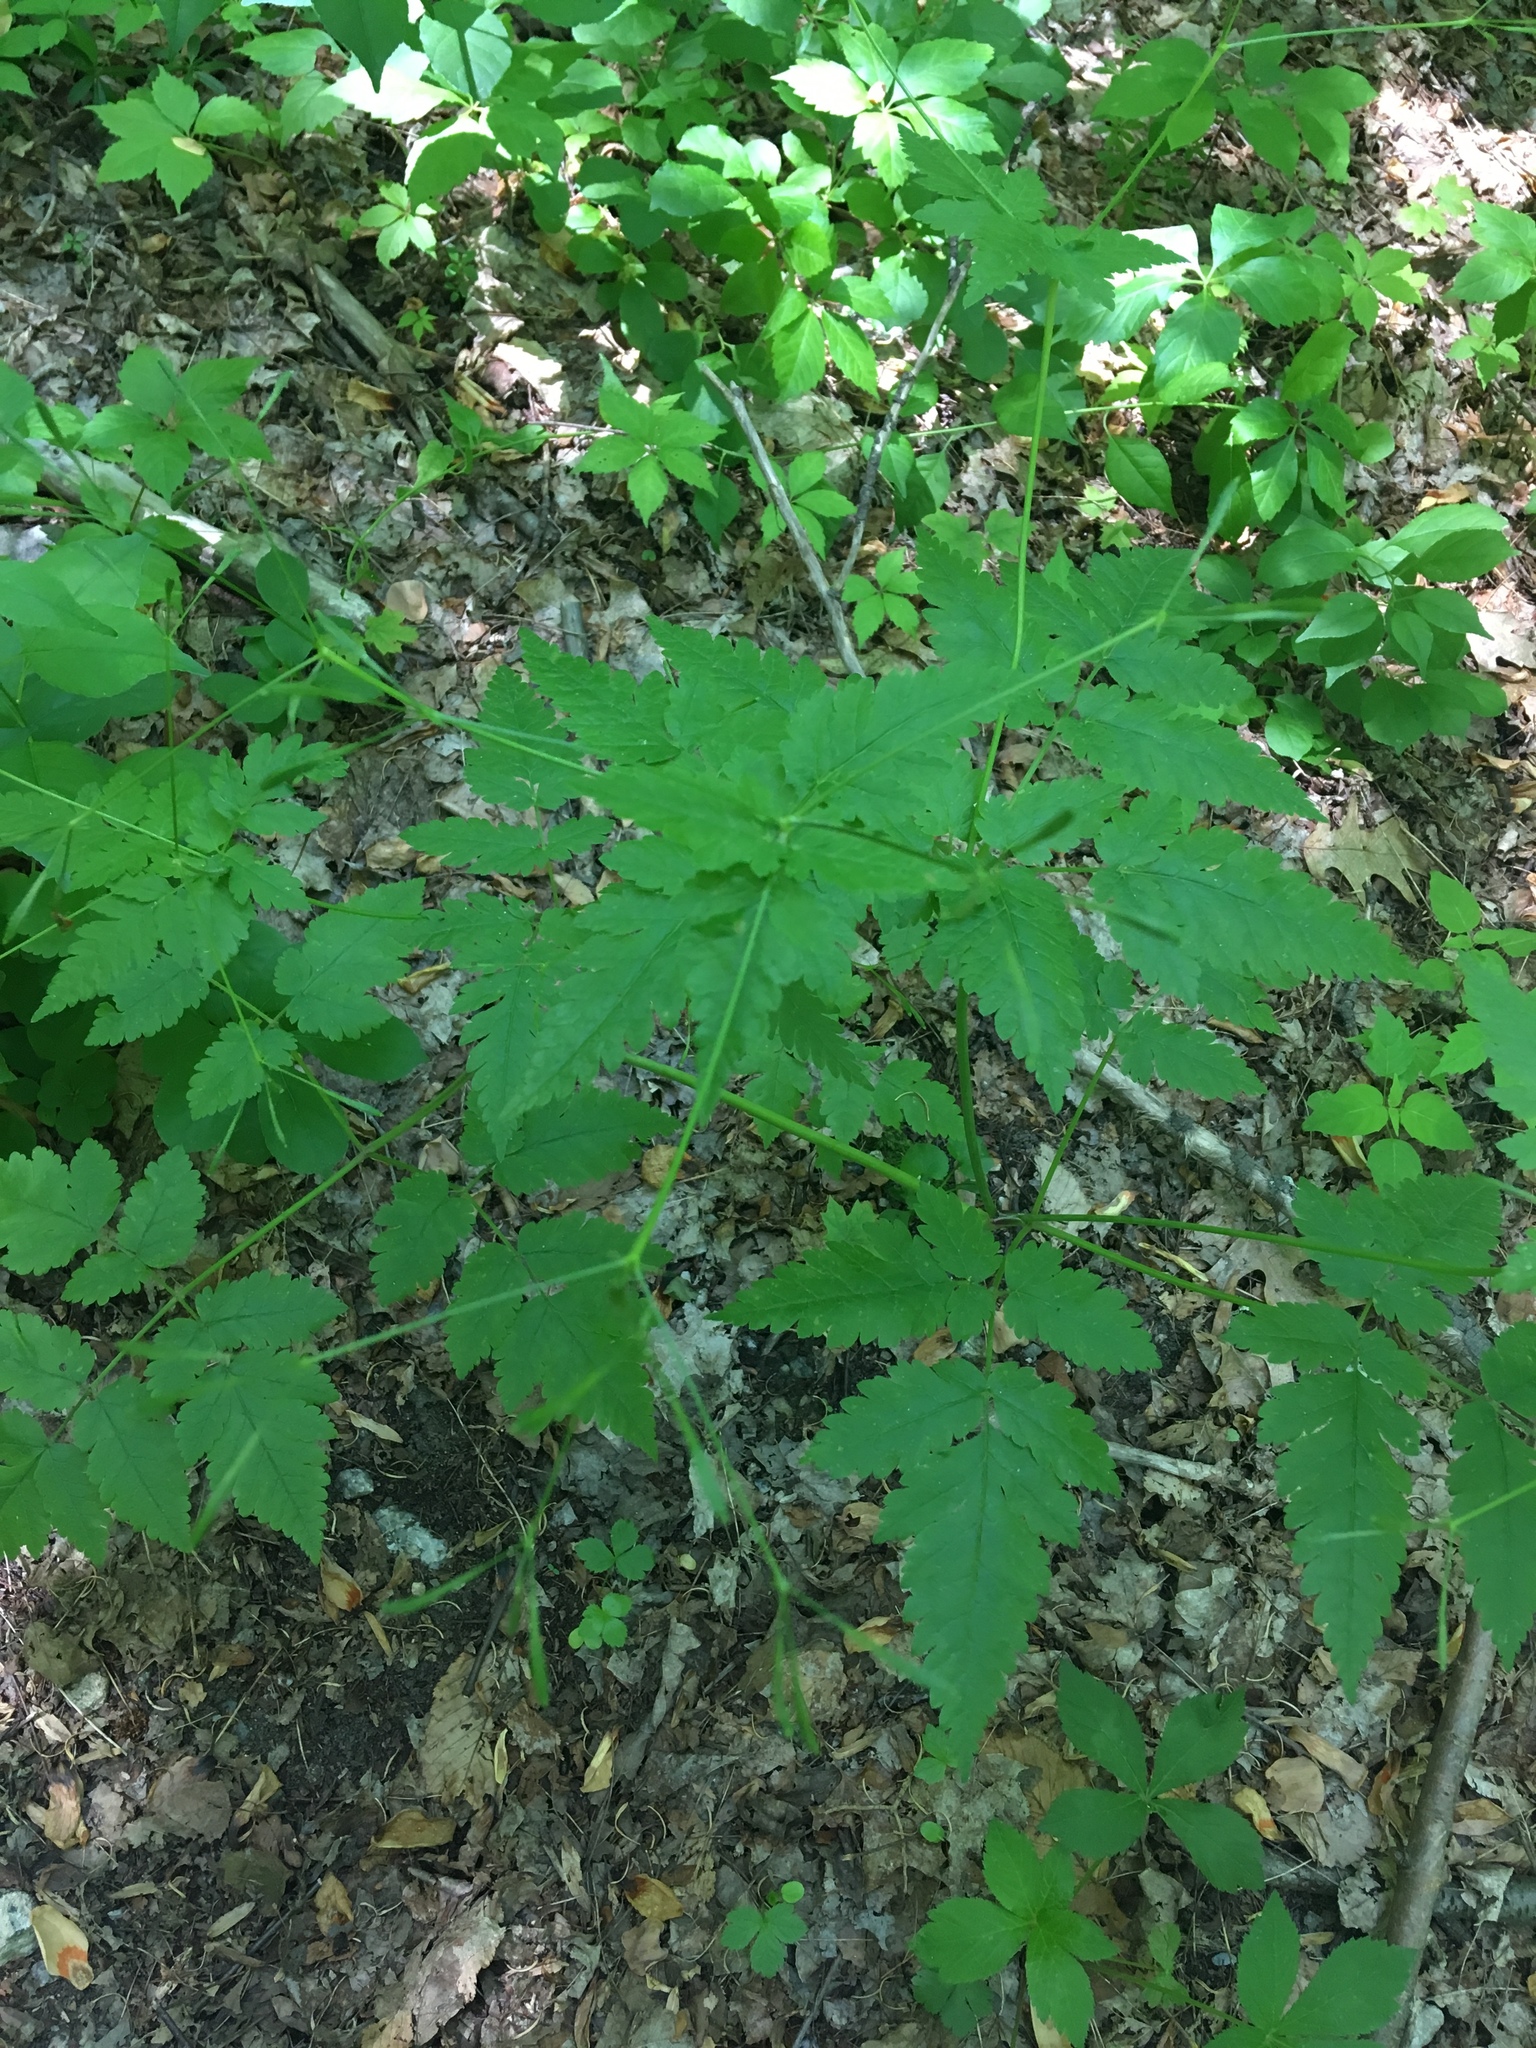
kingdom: Plantae
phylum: Tracheophyta
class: Magnoliopsida
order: Apiales
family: Apiaceae
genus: Osmorhiza
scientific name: Osmorhiza claytonii
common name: Hairy sweet cicely
